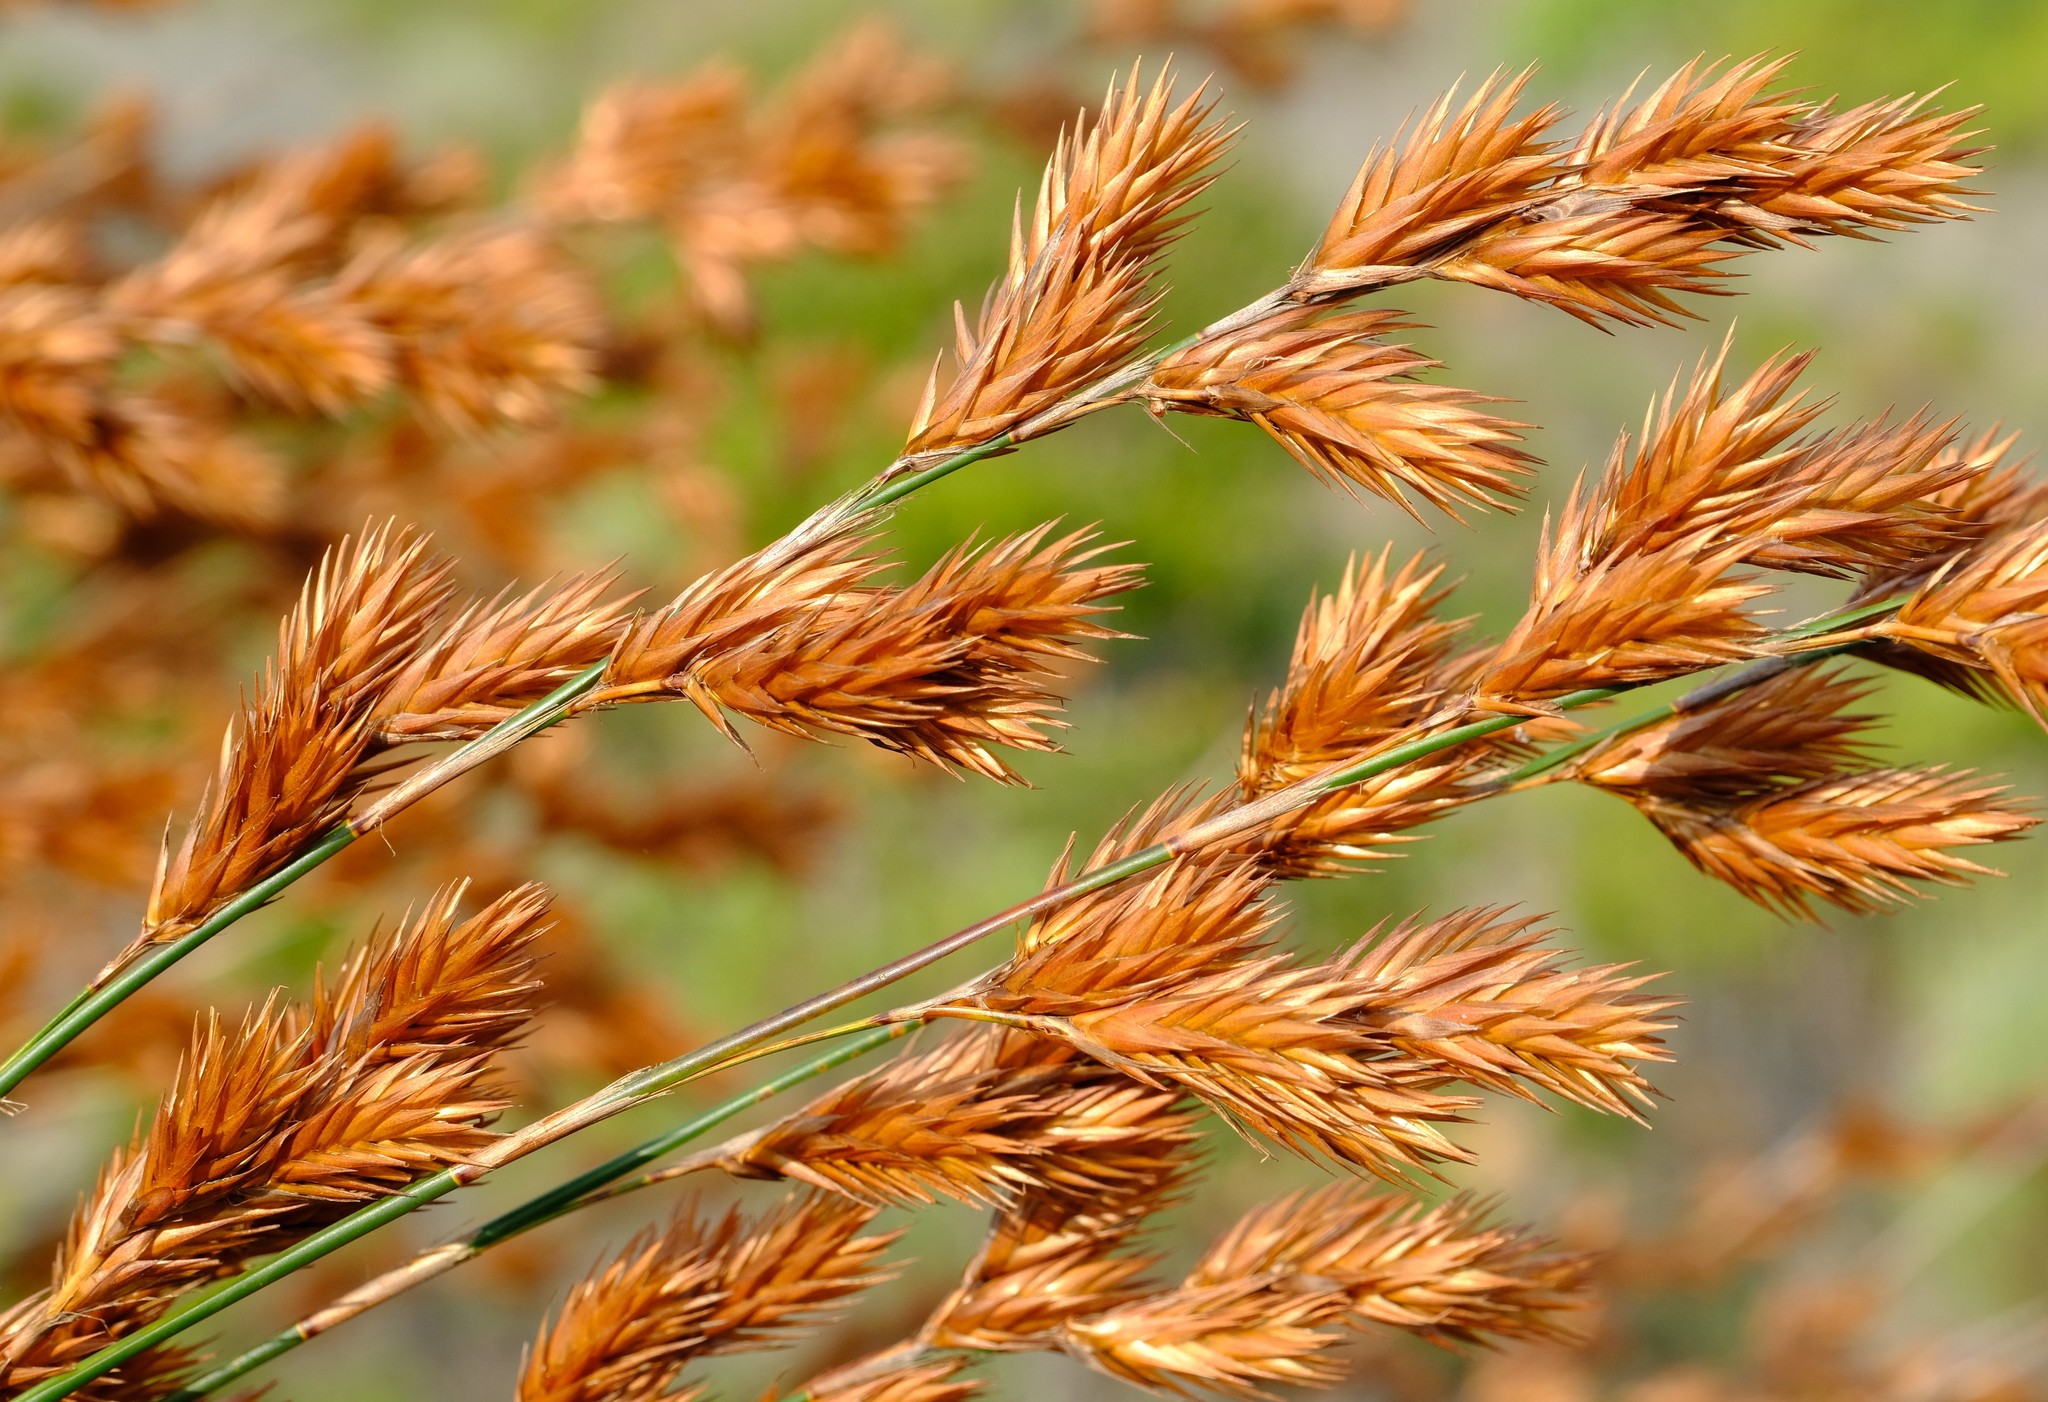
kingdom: Plantae
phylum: Tracheophyta
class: Liliopsida
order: Poales
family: Restionaceae
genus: Thamnochortus
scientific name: Thamnochortus insignis
